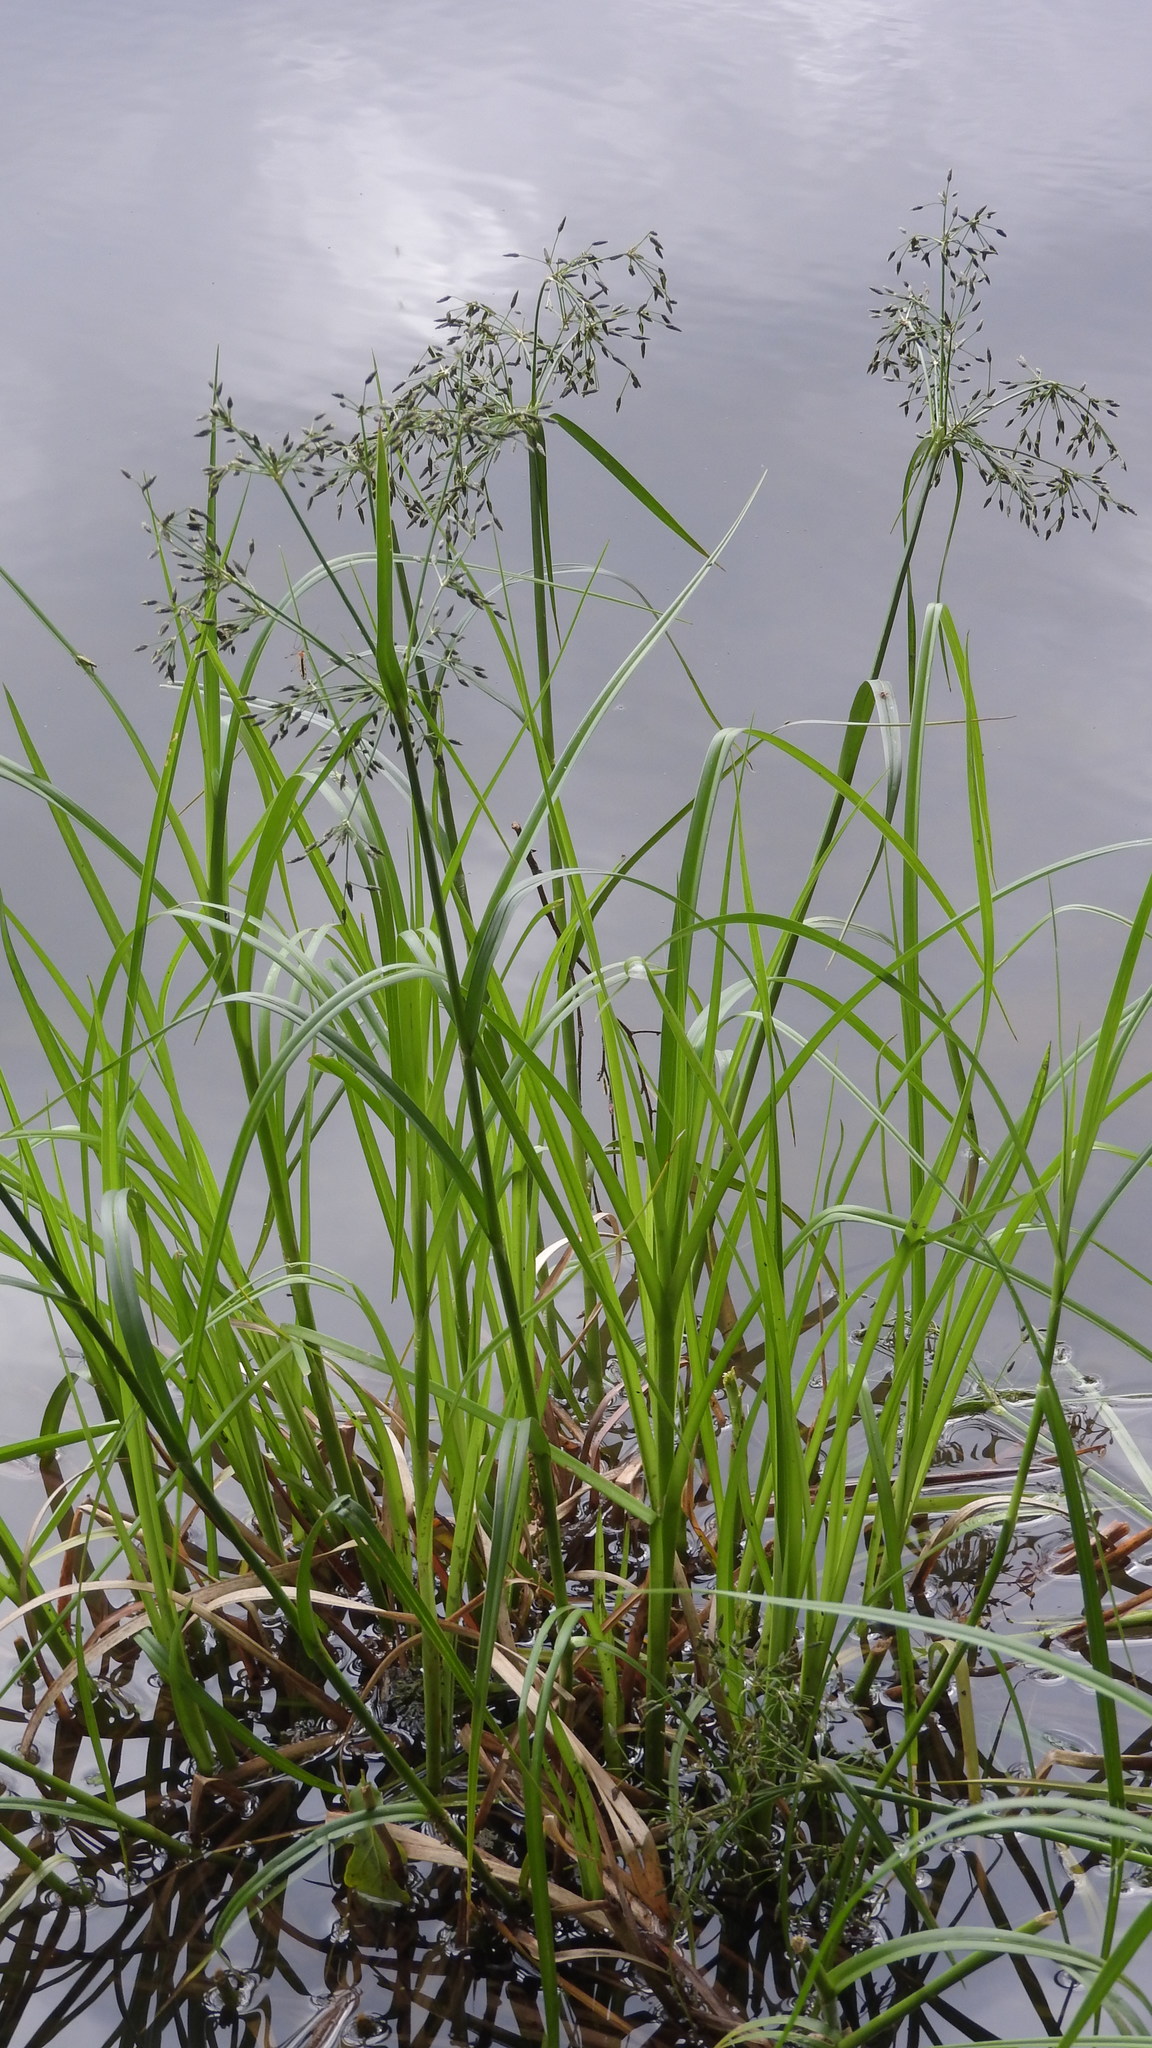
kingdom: Plantae
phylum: Tracheophyta
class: Liliopsida
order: Poales
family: Cyperaceae
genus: Scirpus
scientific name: Scirpus radicans
